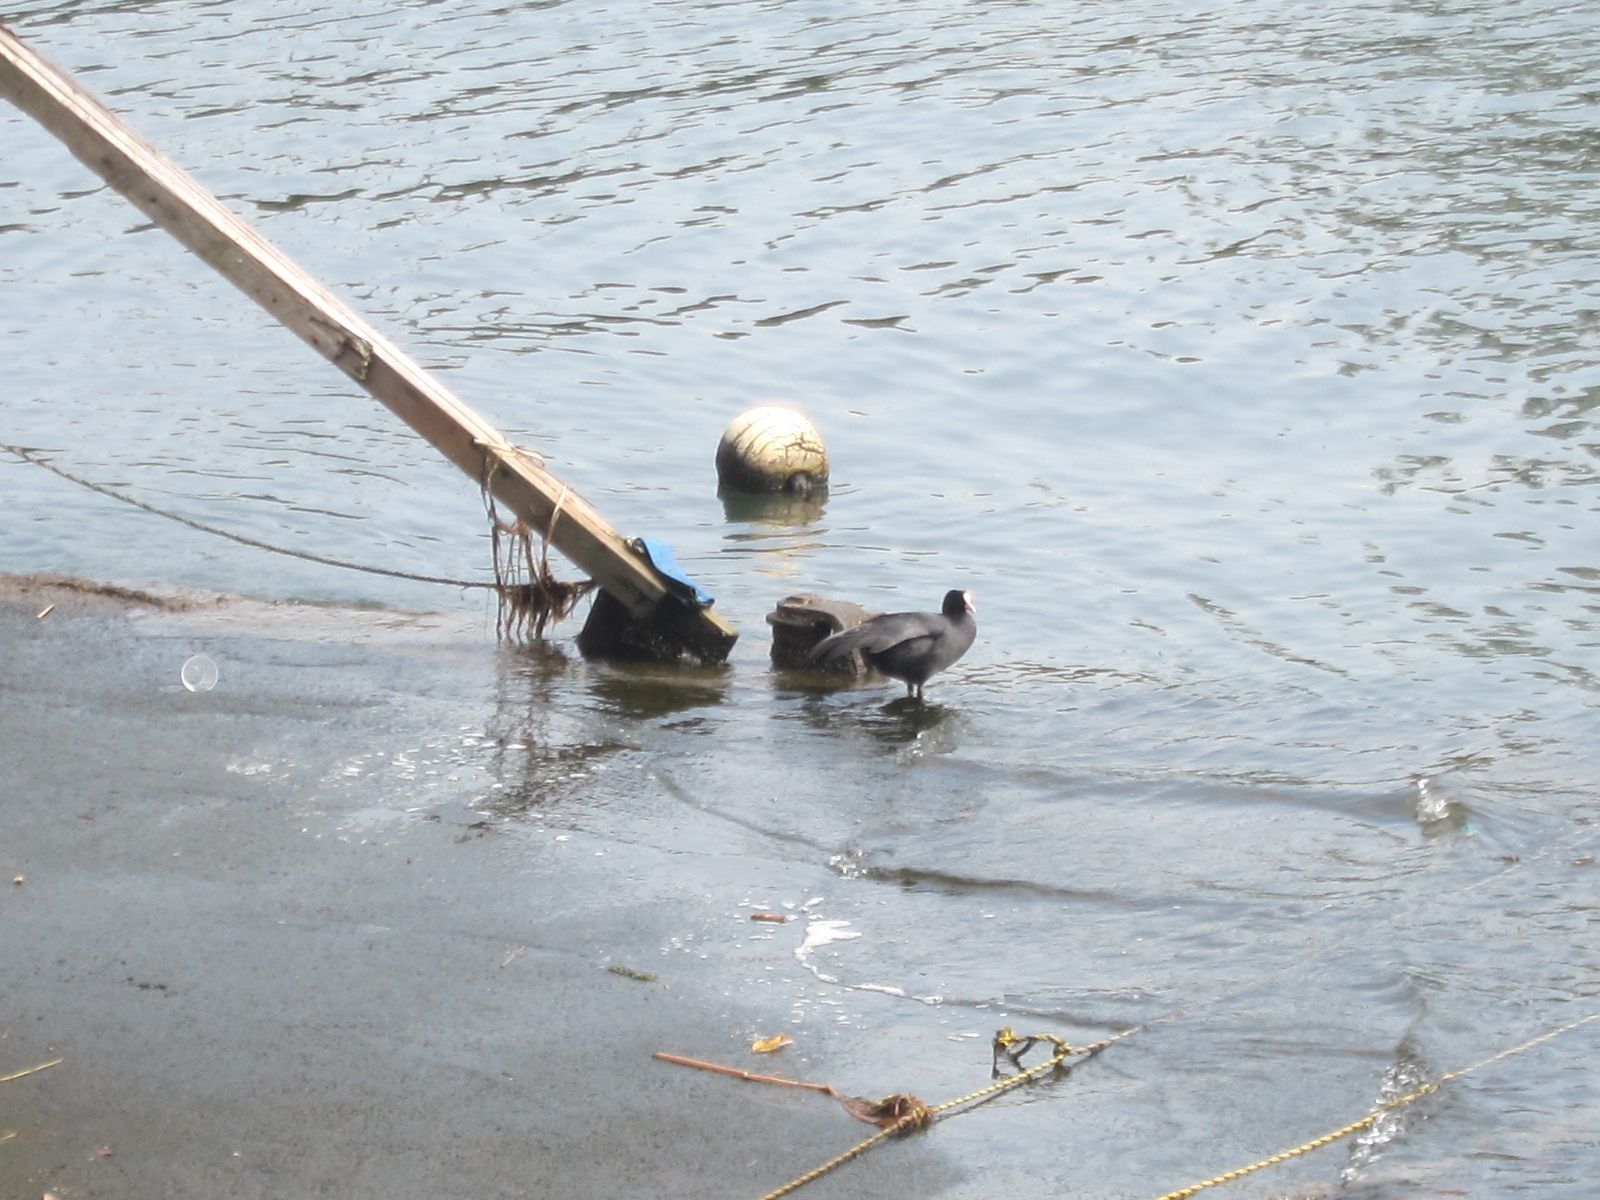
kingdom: Animalia
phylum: Chordata
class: Aves
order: Gruiformes
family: Rallidae
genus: Fulica
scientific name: Fulica atra
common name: Eurasian coot
